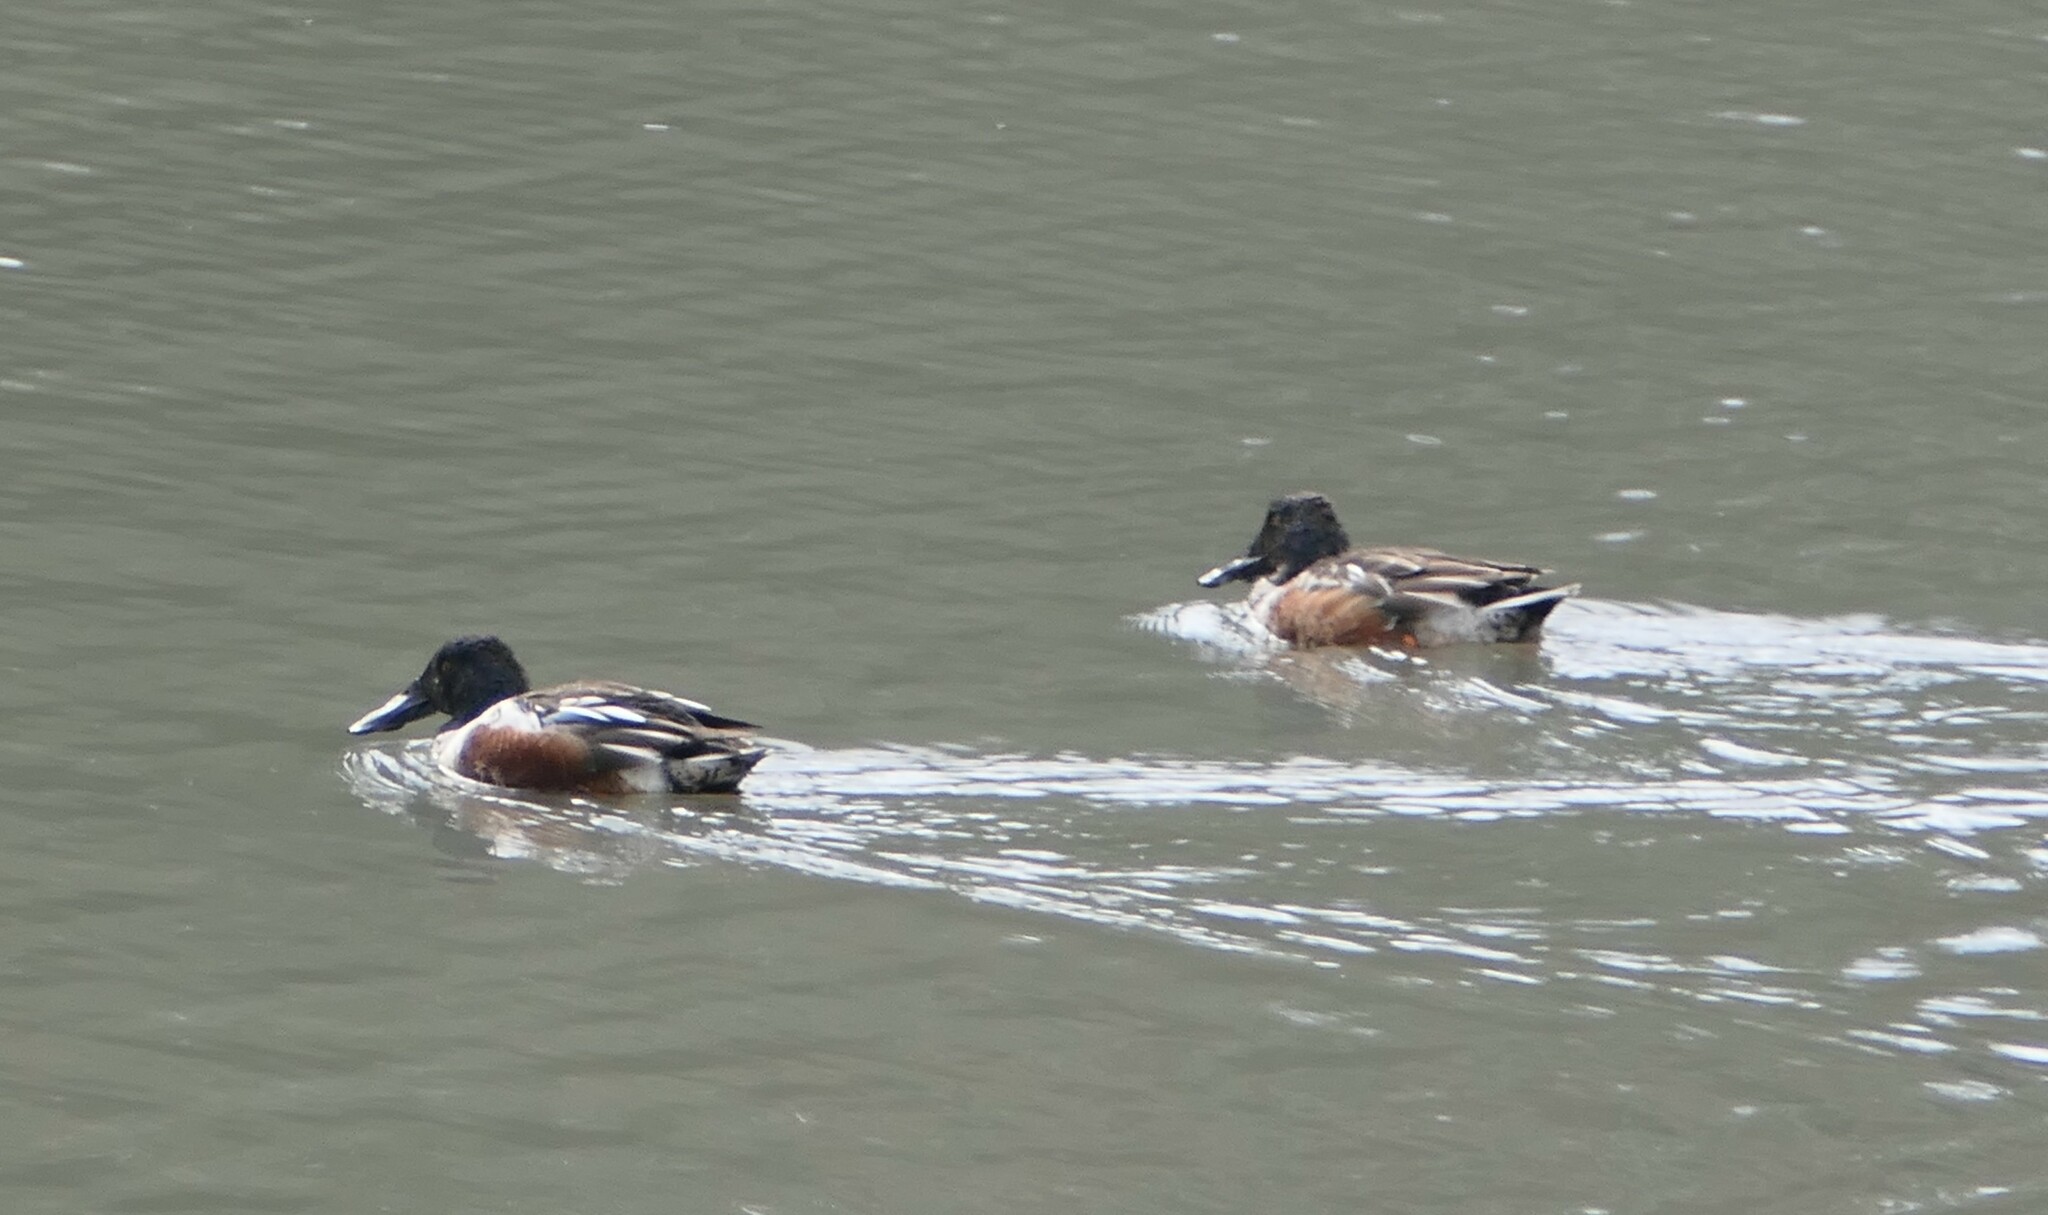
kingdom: Animalia
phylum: Chordata
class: Aves
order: Anseriformes
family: Anatidae
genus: Spatula
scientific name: Spatula clypeata
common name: Northern shoveler
